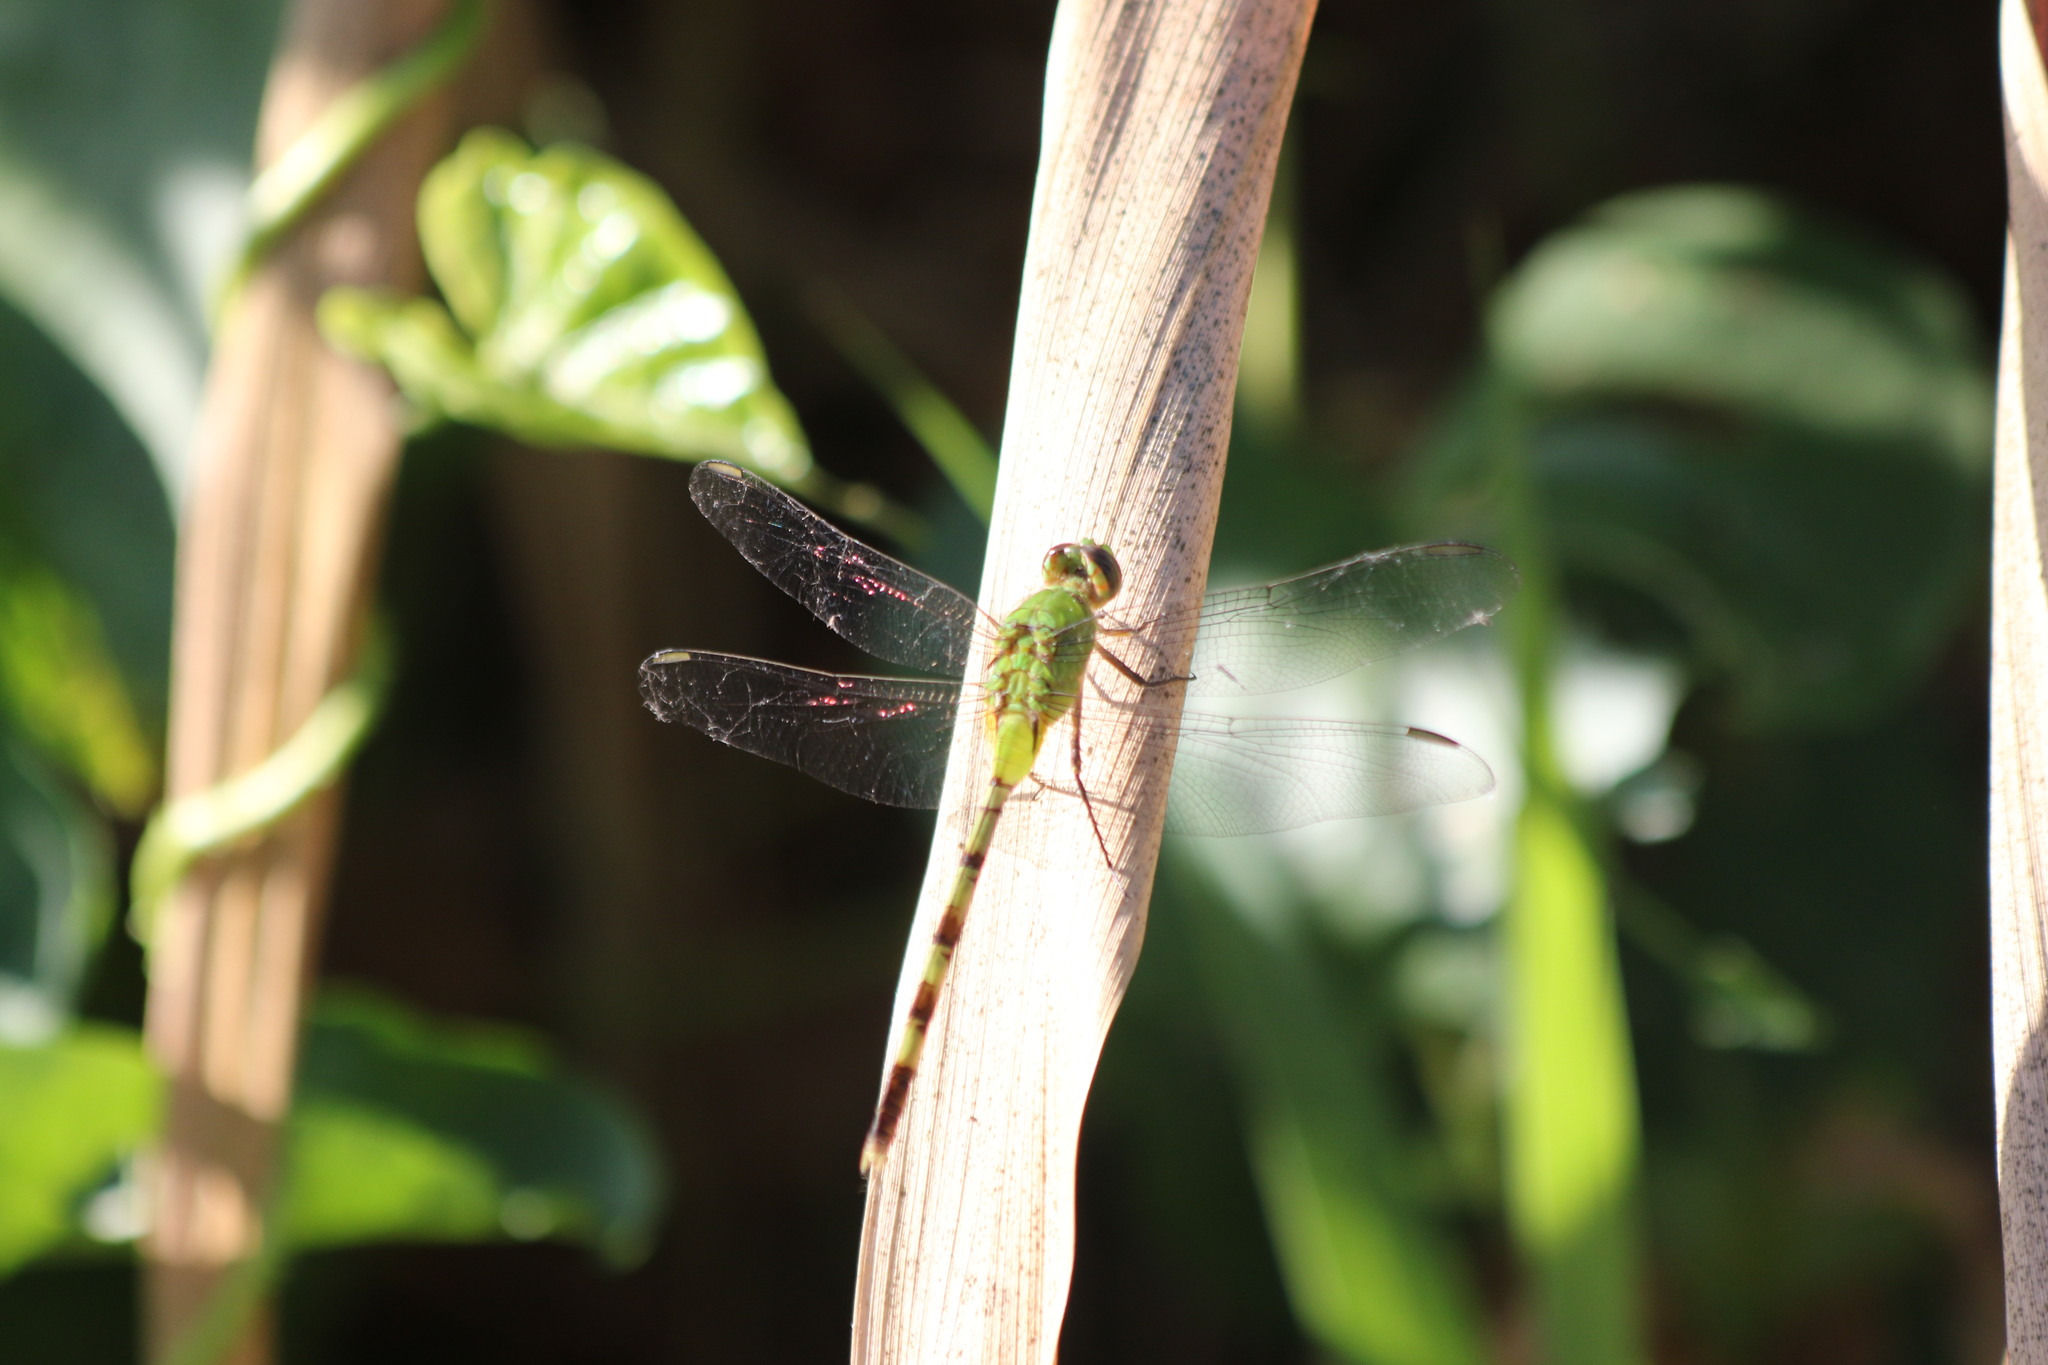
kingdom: Animalia
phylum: Arthropoda
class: Insecta
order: Odonata
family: Libellulidae
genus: Erythemis
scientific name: Erythemis vesiculosa
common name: Great pondhawk
